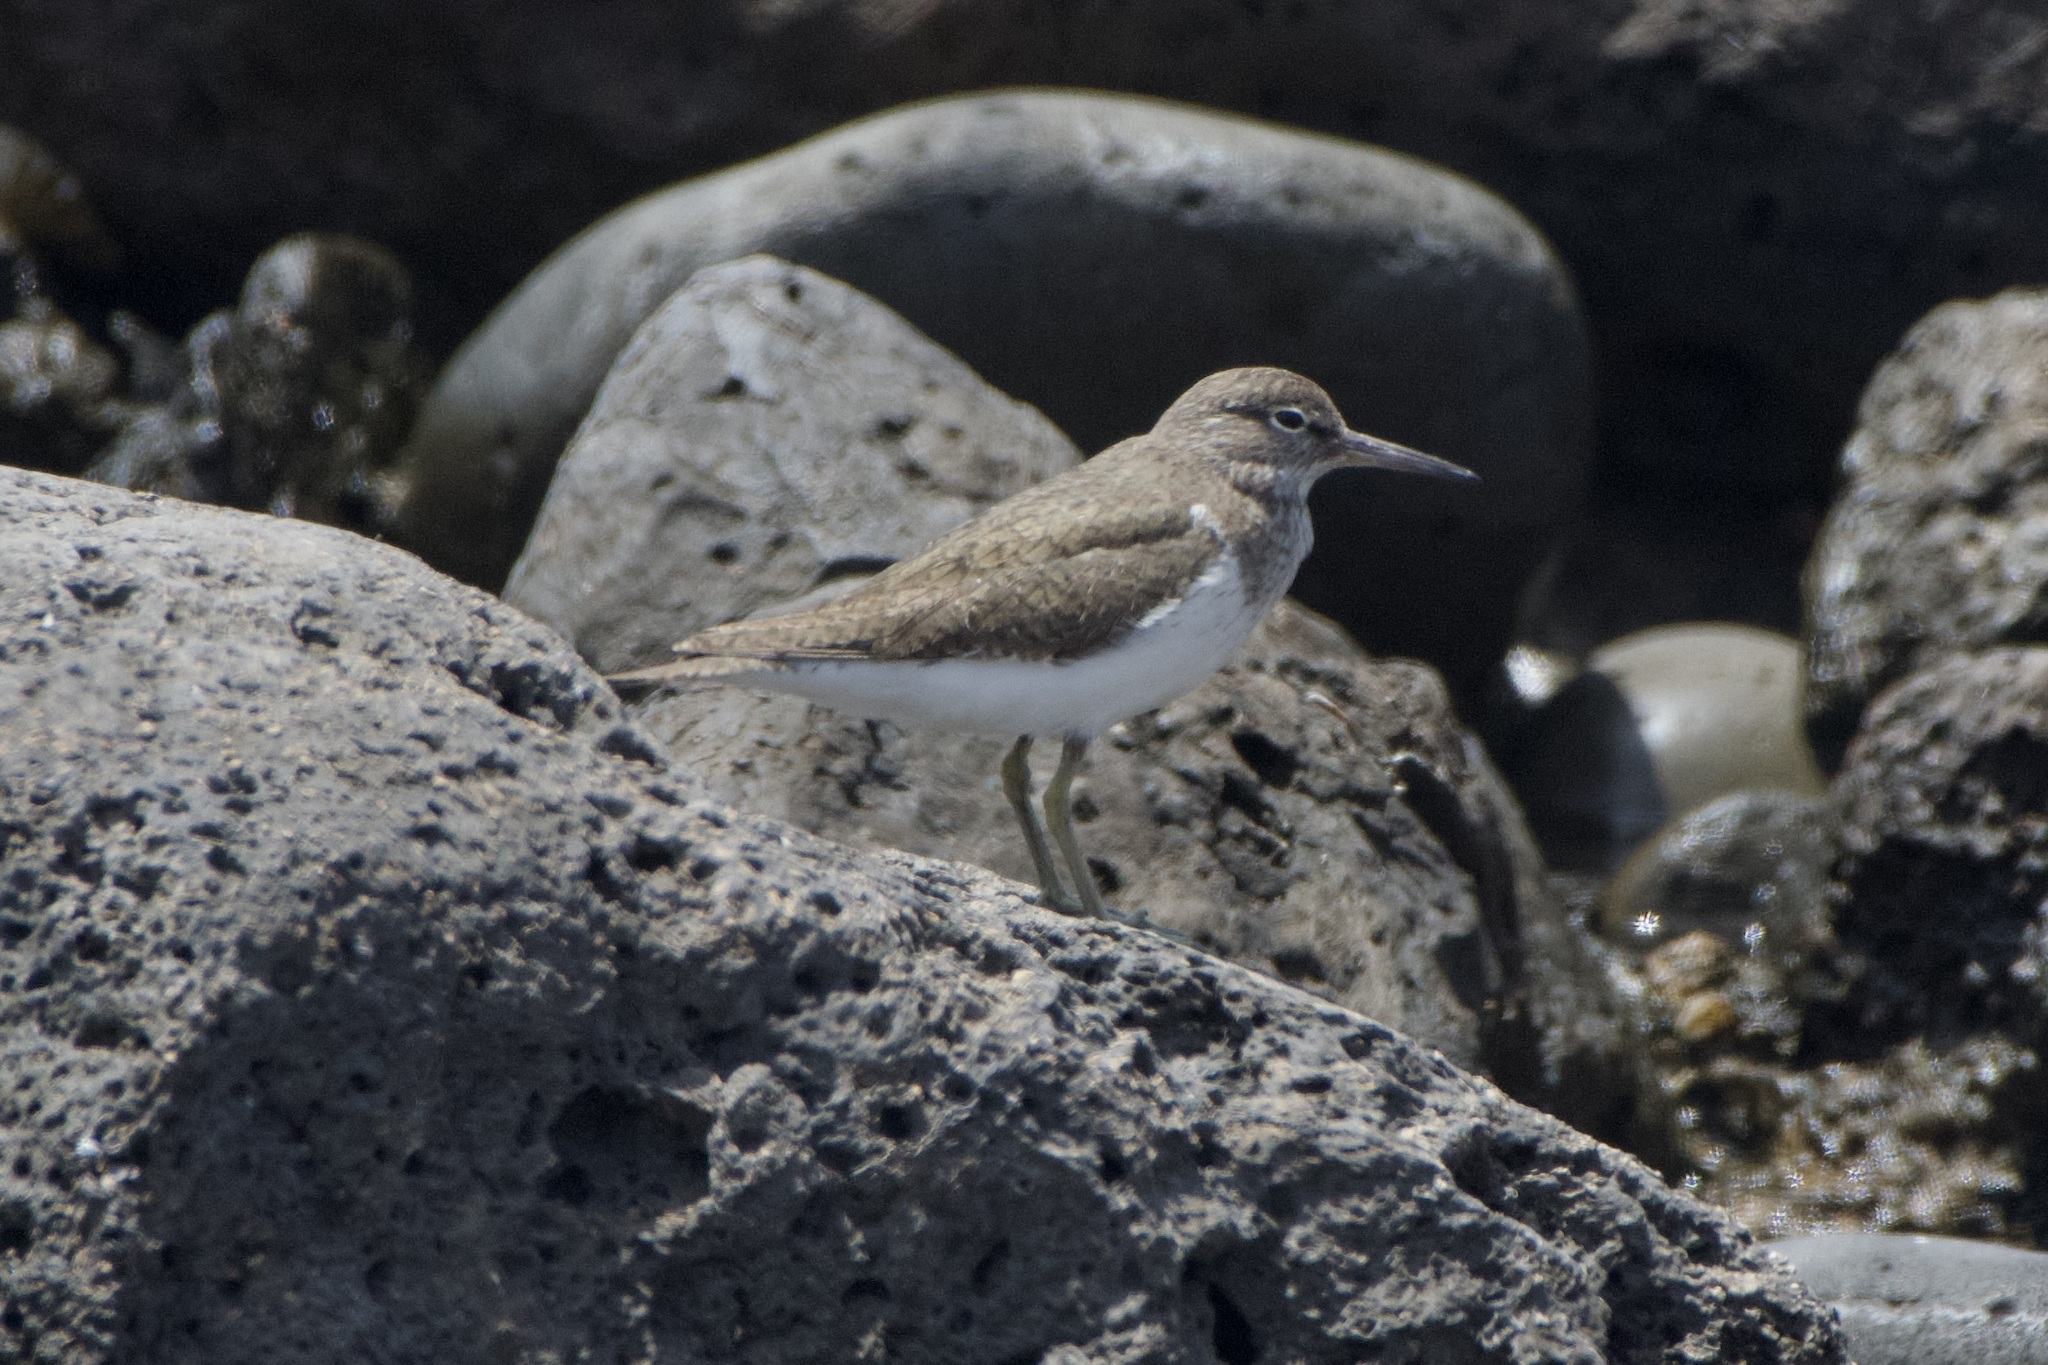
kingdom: Animalia
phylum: Chordata
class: Aves
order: Charadriiformes
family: Scolopacidae
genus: Actitis
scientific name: Actitis hypoleucos
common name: Common sandpiper
